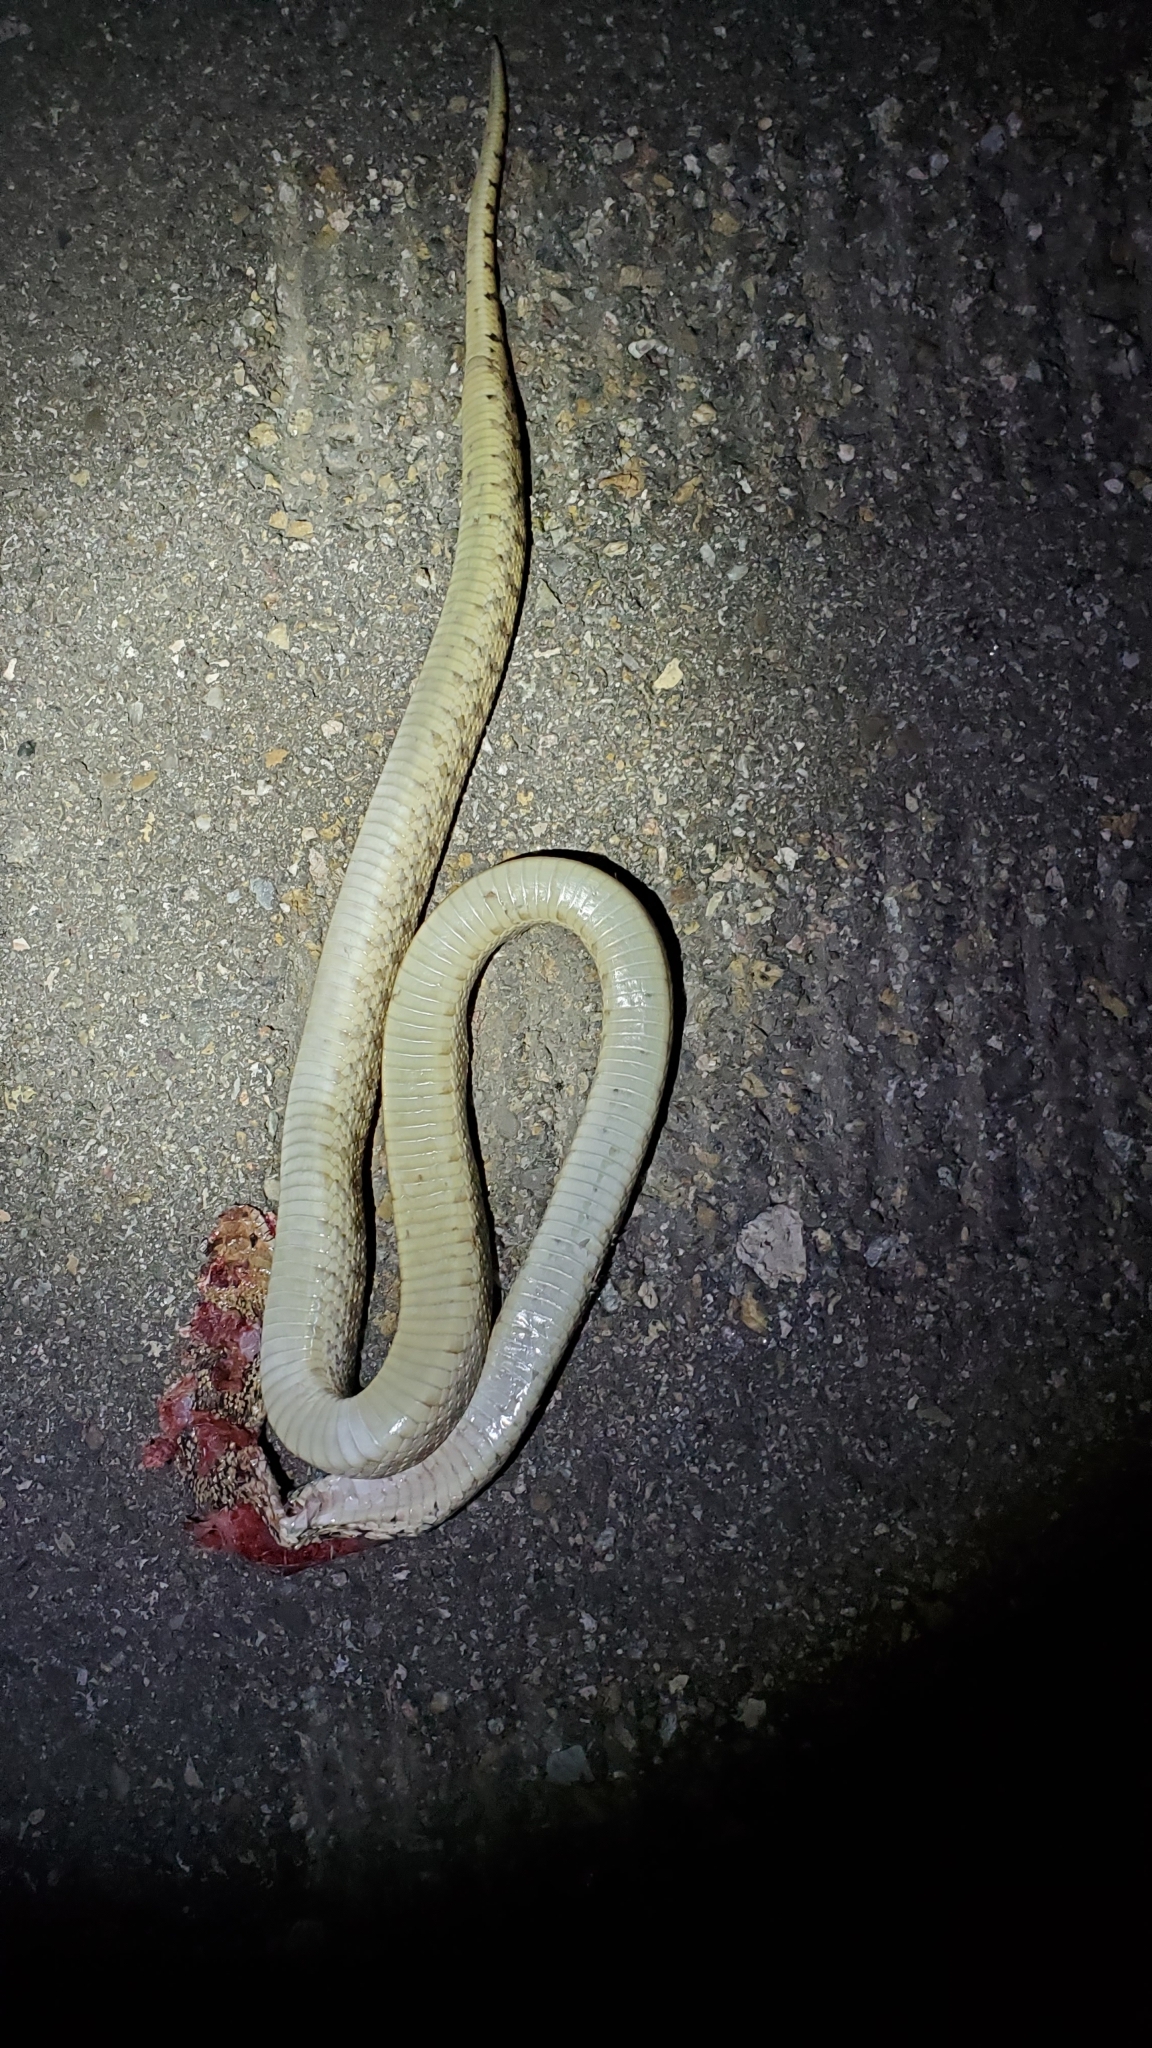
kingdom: Animalia
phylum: Chordata
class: Squamata
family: Colubridae
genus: Pituophis
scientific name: Pituophis catenifer
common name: Gopher snake
